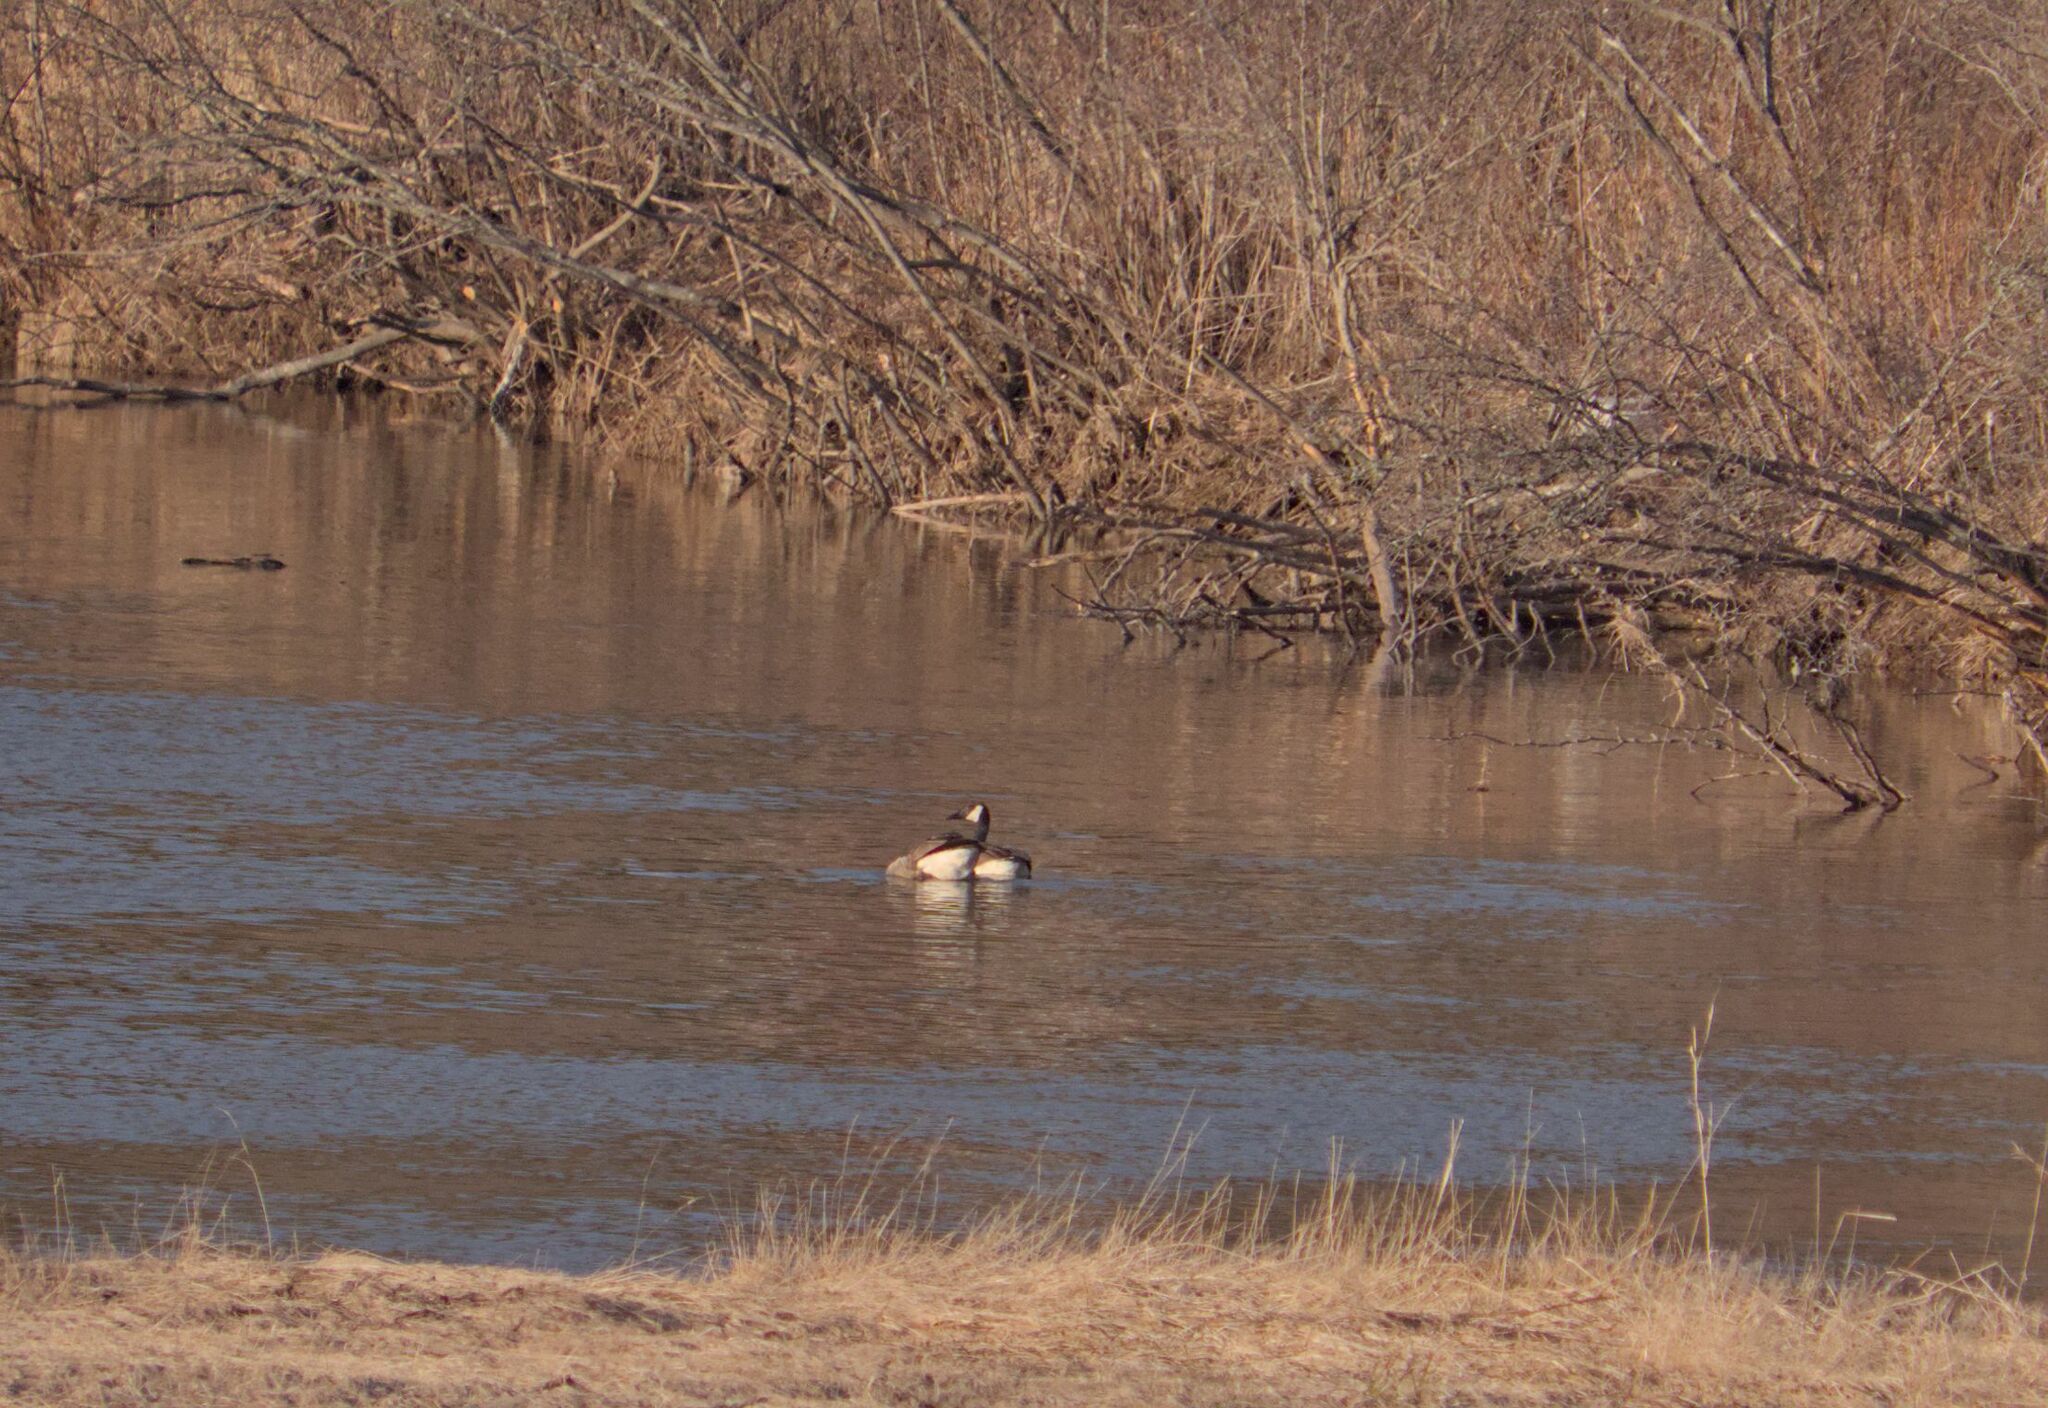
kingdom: Animalia
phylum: Chordata
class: Aves
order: Anseriformes
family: Anatidae
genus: Branta
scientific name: Branta canadensis
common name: Canada goose
